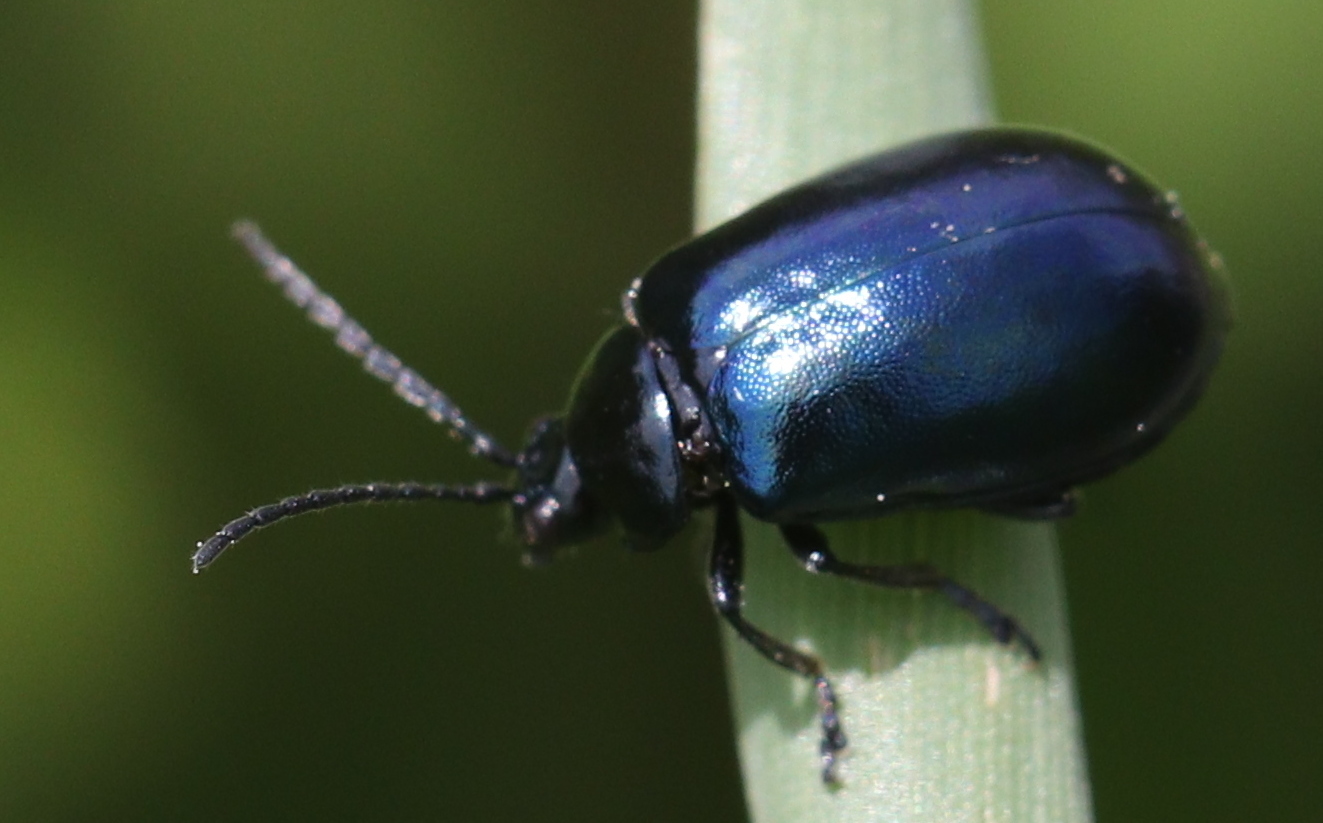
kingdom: Animalia
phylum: Arthropoda
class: Insecta
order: Coleoptera
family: Chrysomelidae
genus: Agelastica
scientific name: Agelastica alni
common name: Alder leaf beetle
